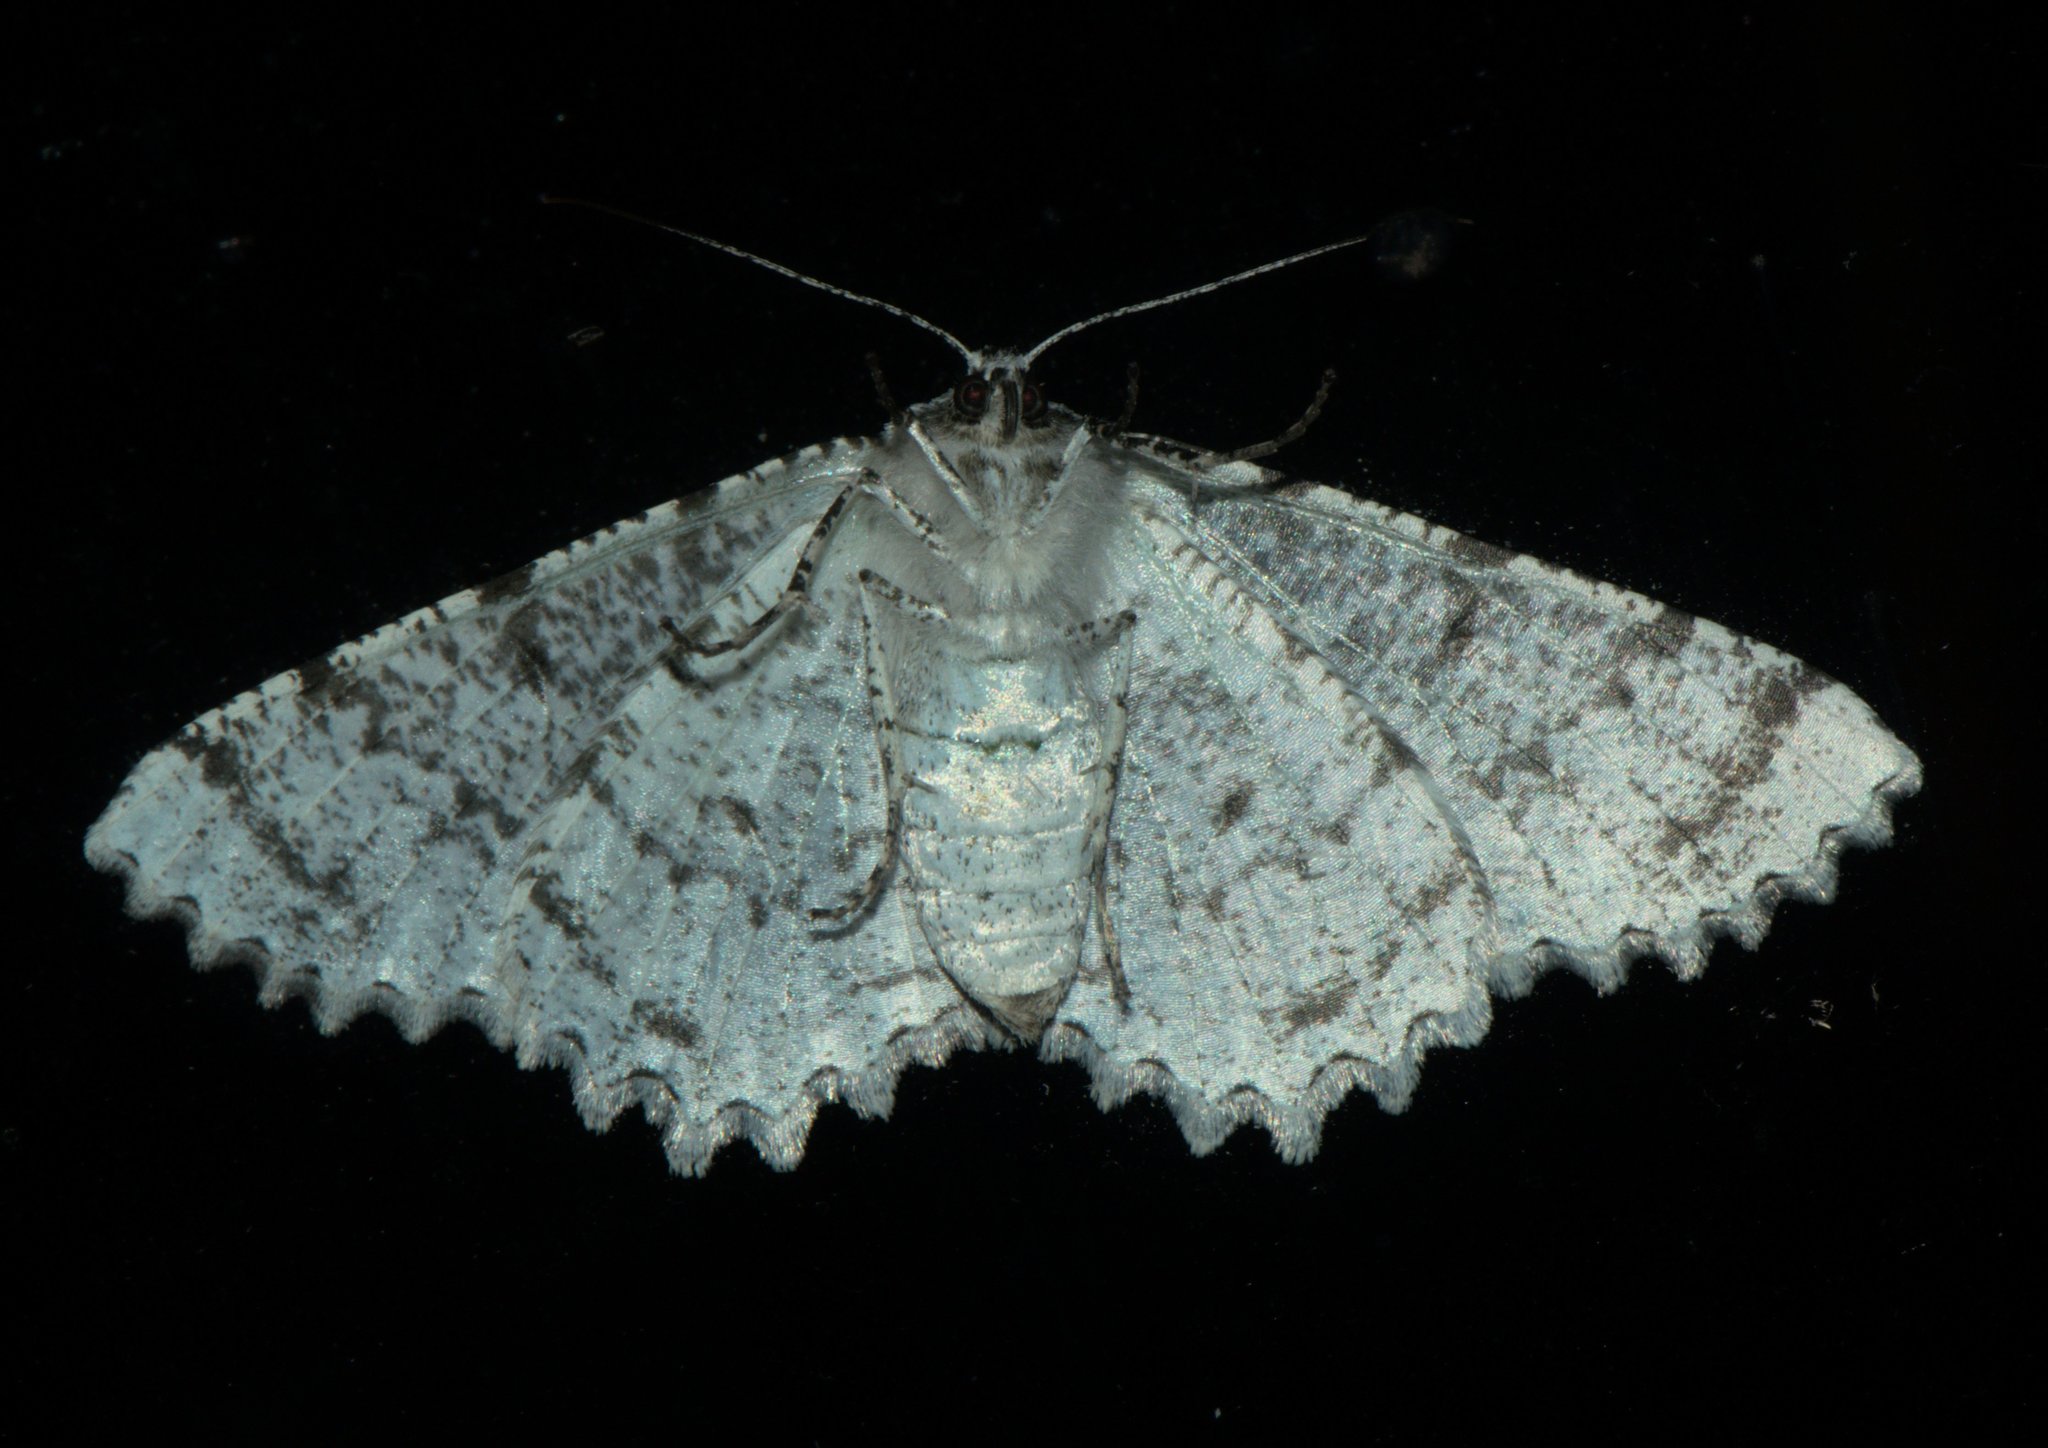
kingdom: Animalia
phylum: Arthropoda
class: Insecta
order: Lepidoptera
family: Geometridae
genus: Lassaba
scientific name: Lassaba albidaria
